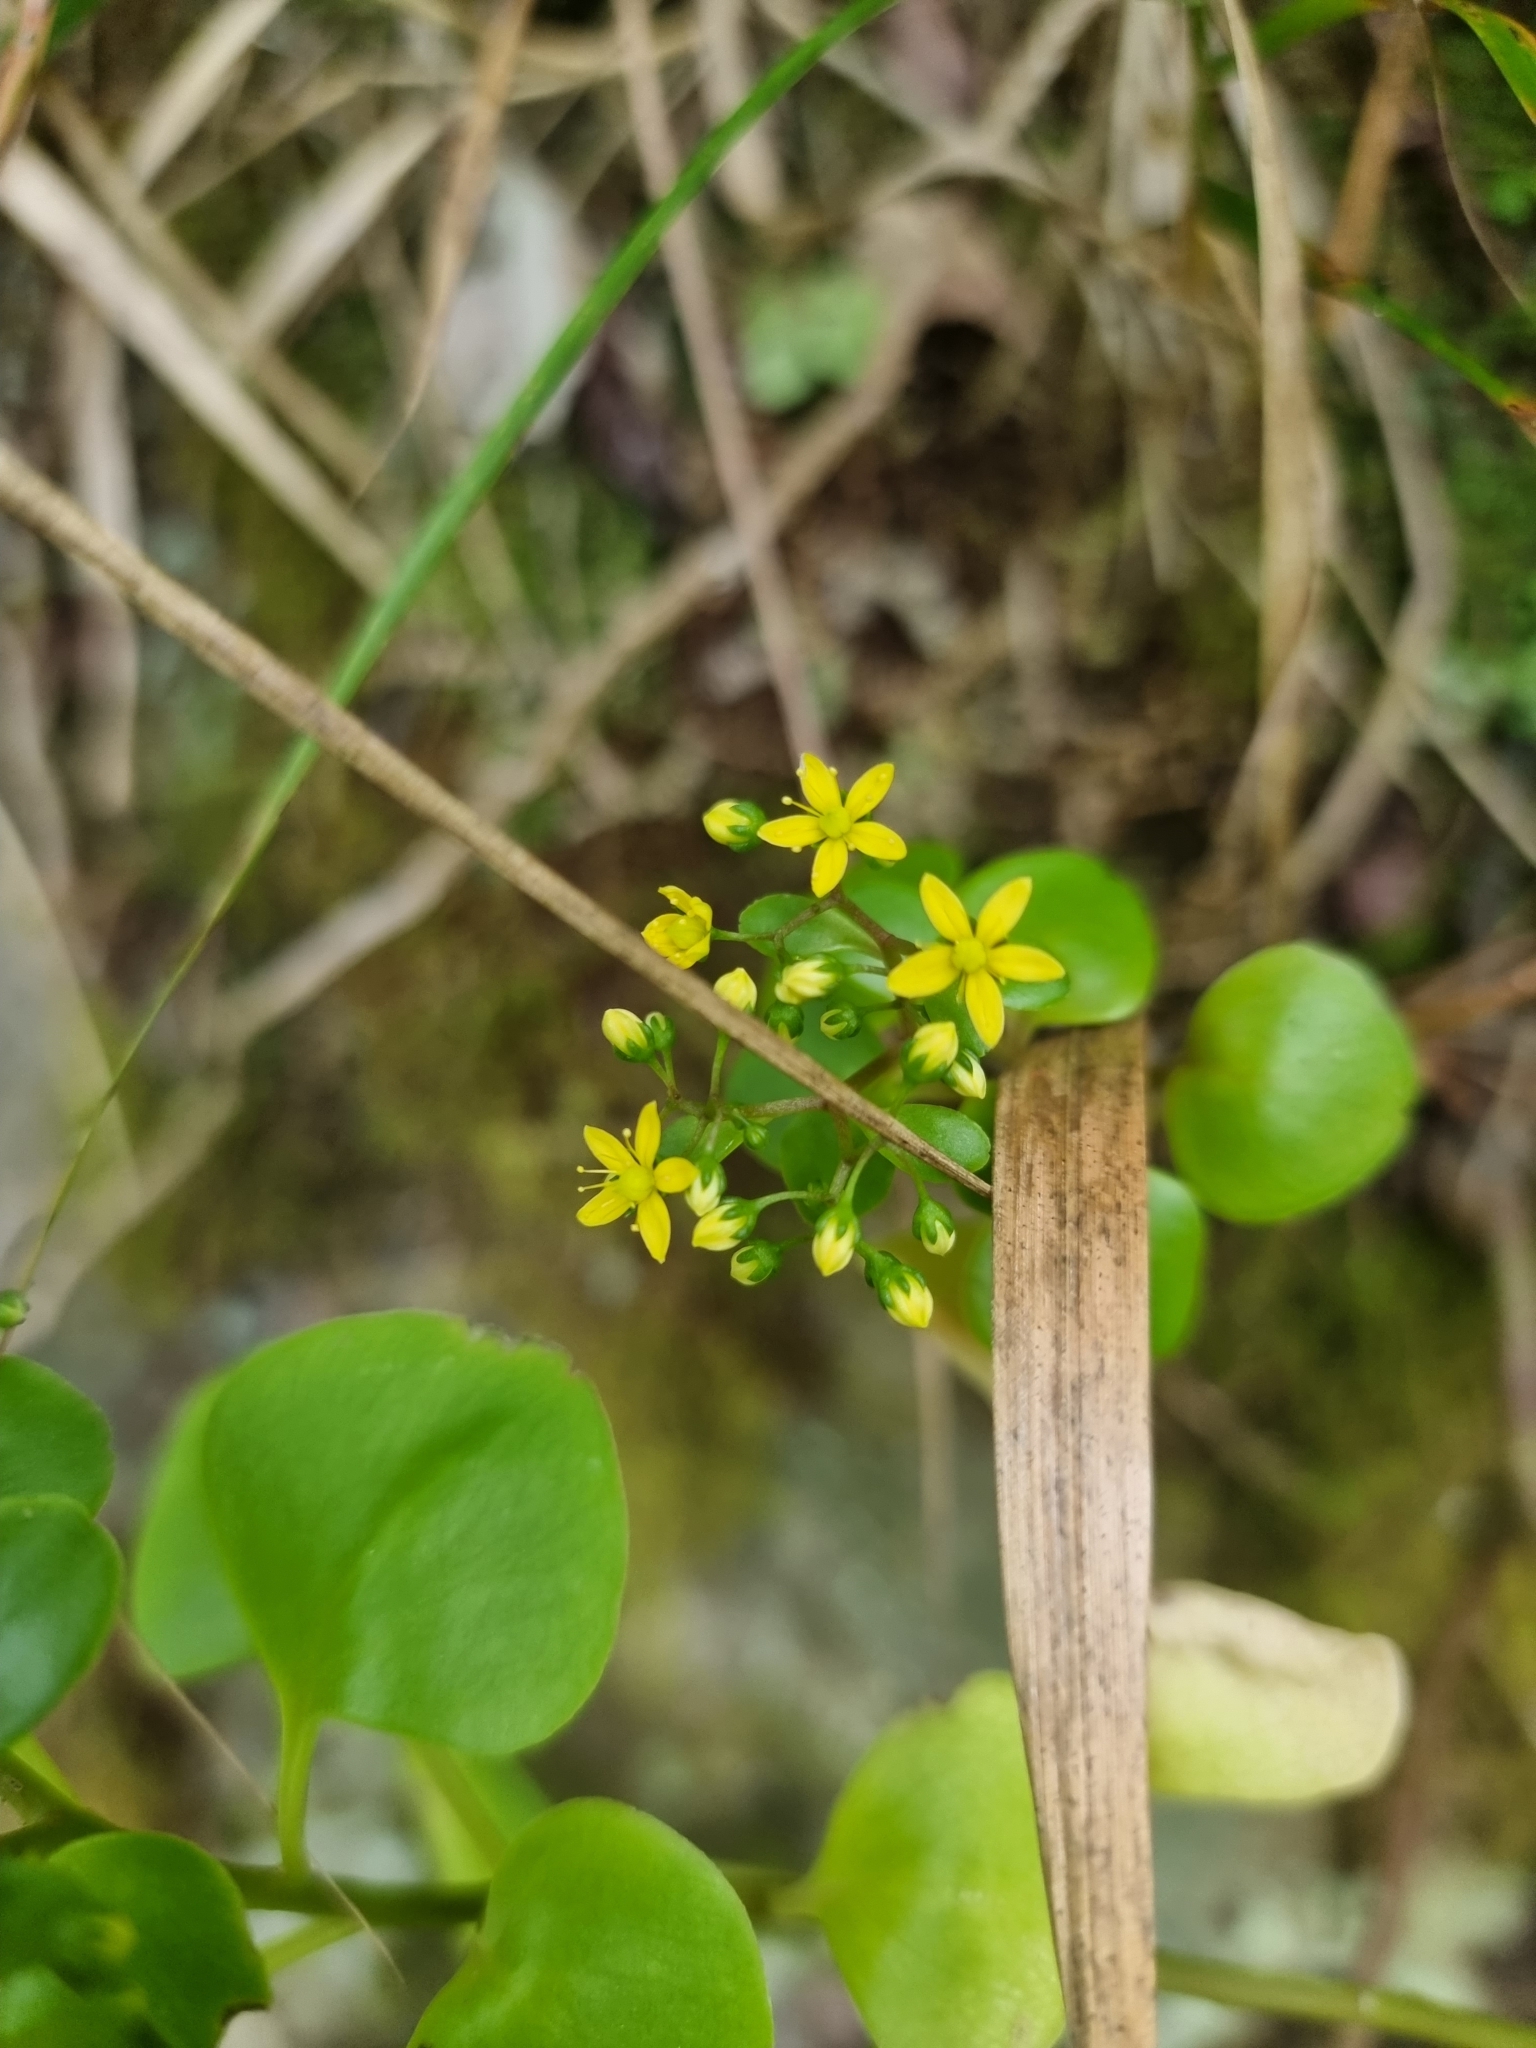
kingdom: Plantae
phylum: Tracheophyta
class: Magnoliopsida
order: Saxifragales
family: Crassulaceae
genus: Aichryson
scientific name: Aichryson divaricatum
